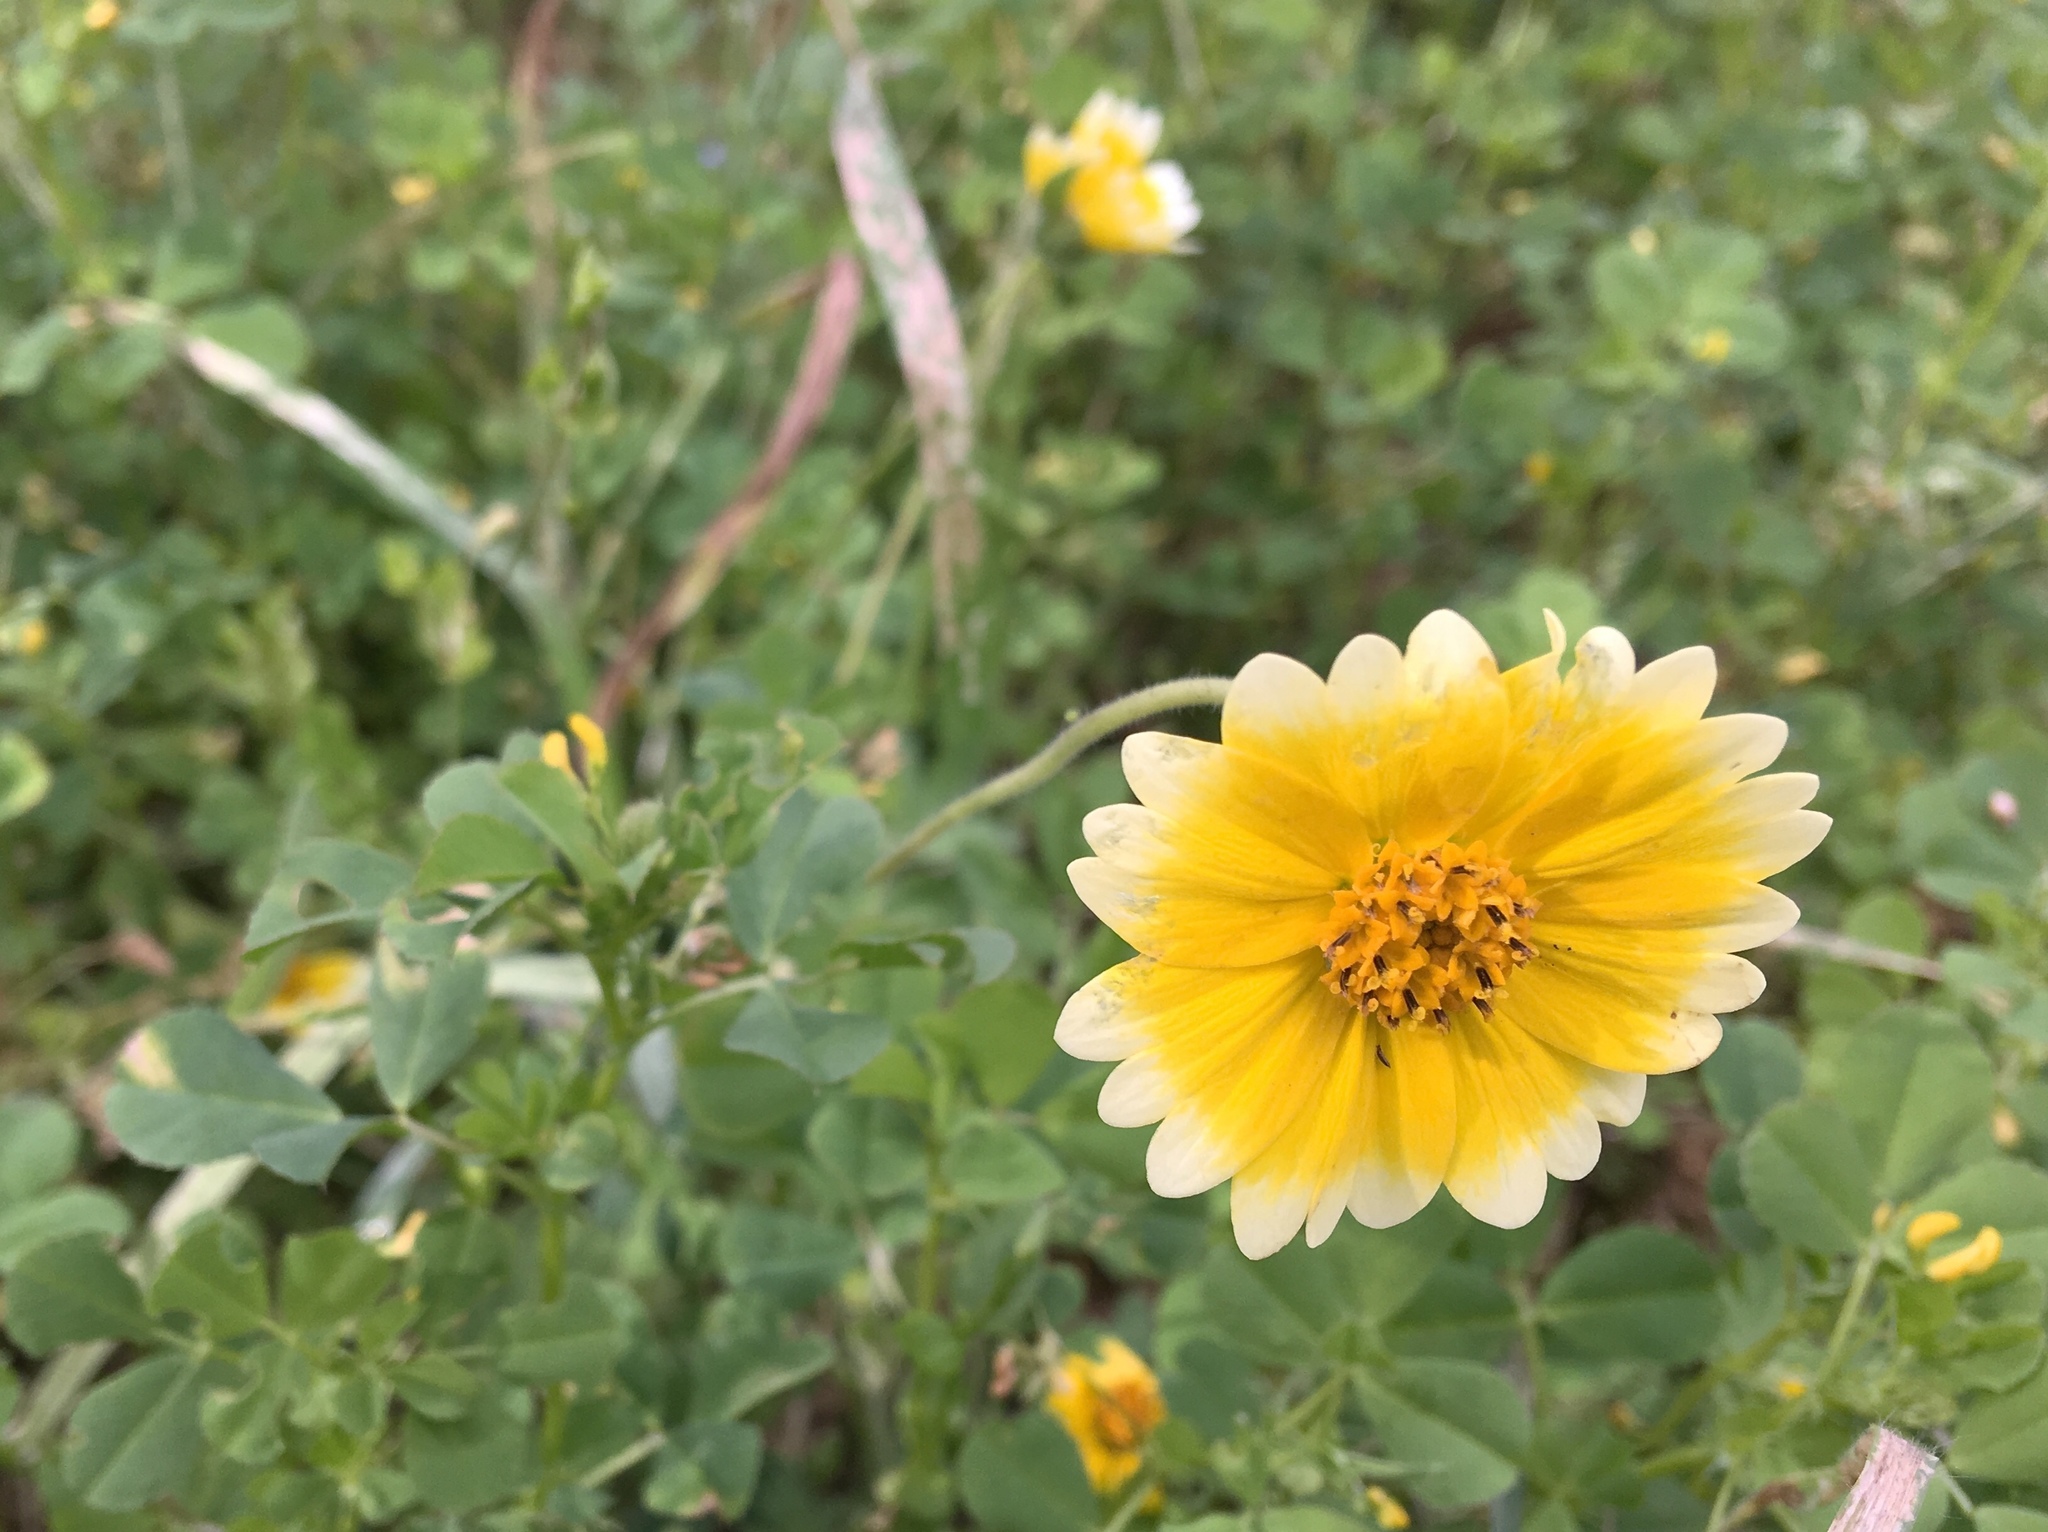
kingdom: Plantae
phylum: Tracheophyta
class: Magnoliopsida
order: Asterales
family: Asteraceae
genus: Layia
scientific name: Layia platyglossa
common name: Tidy-tips
